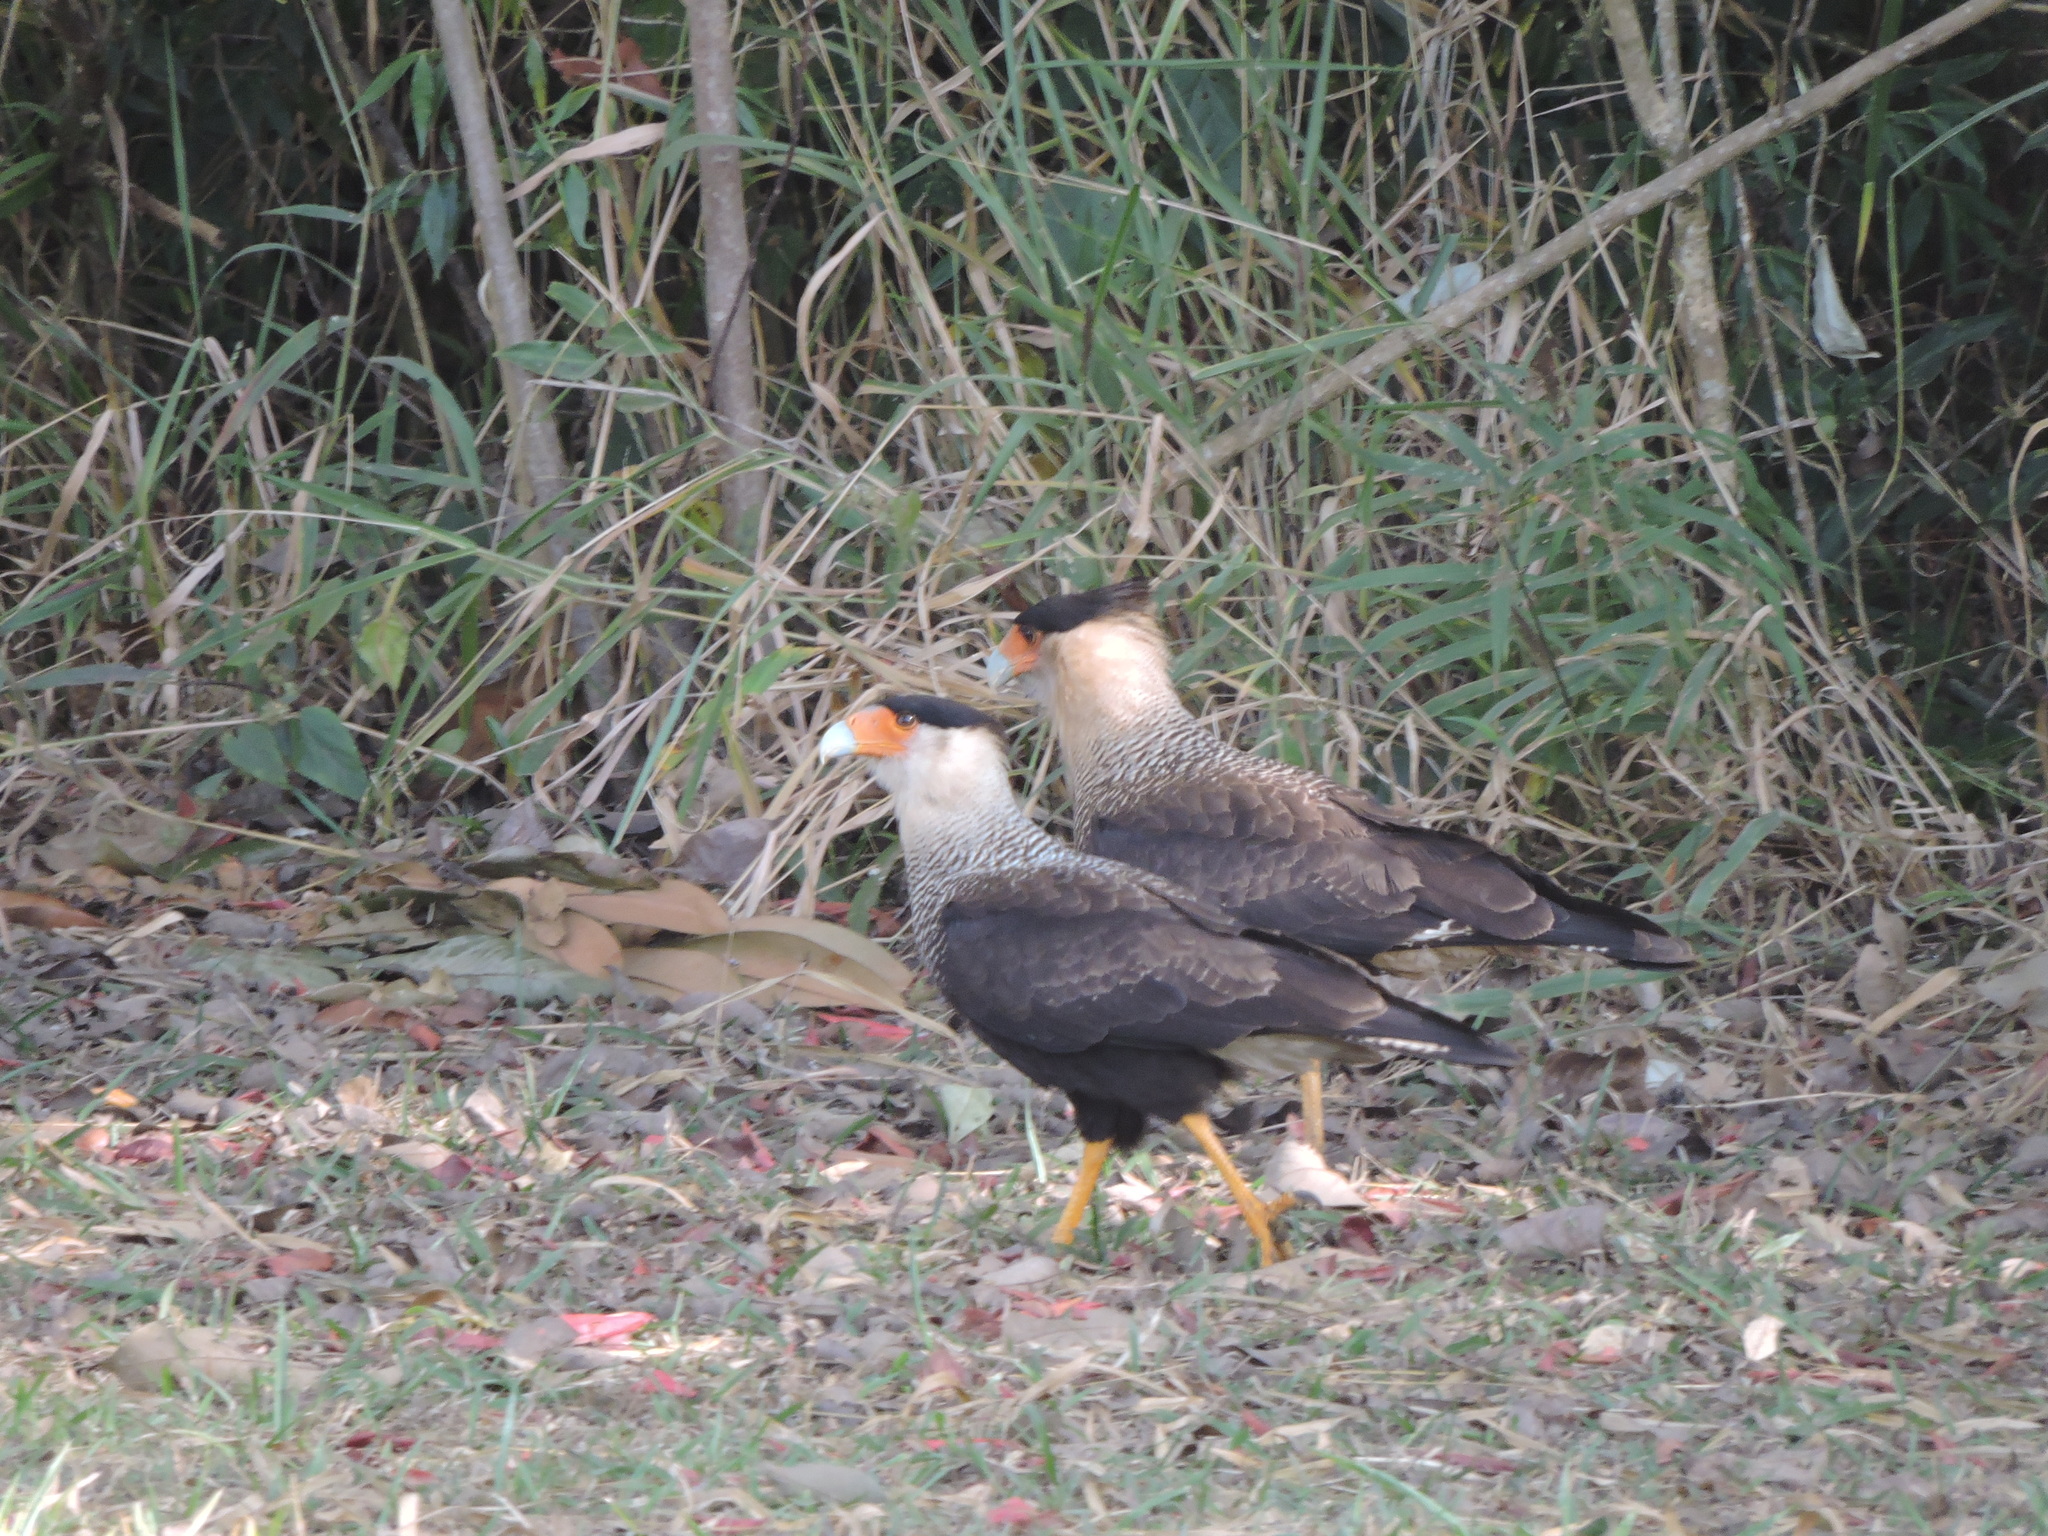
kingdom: Animalia
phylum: Chordata
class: Aves
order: Falconiformes
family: Falconidae
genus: Caracara
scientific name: Caracara plancus
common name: Southern caracara
